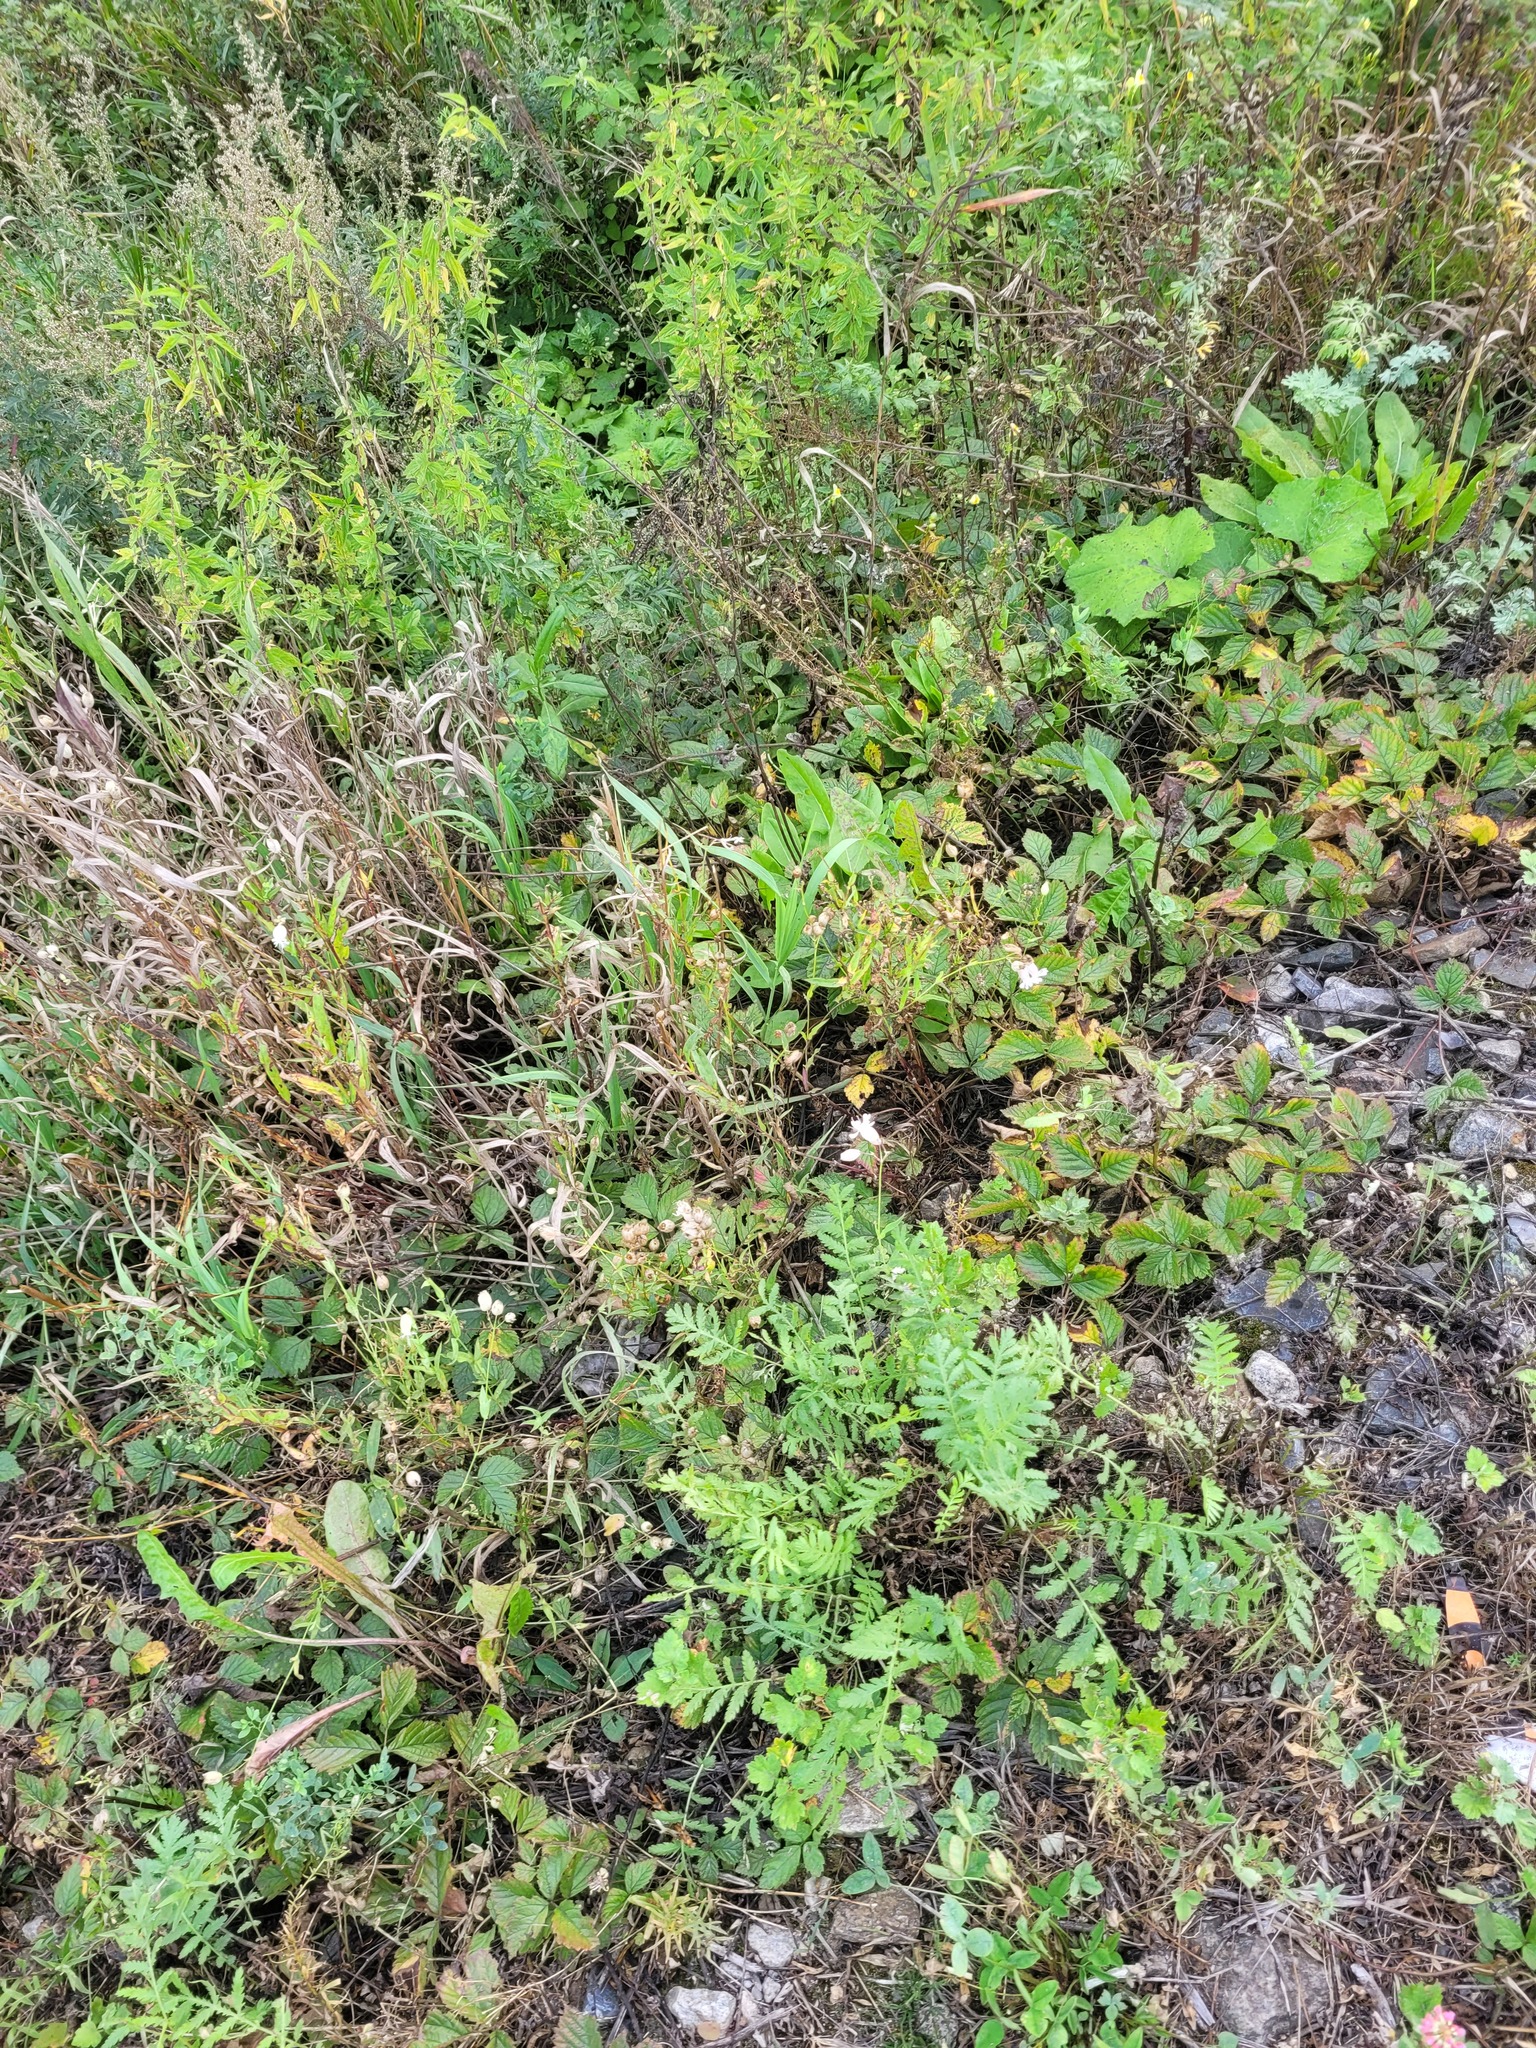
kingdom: Plantae
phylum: Tracheophyta
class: Magnoliopsida
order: Caryophyllales
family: Caryophyllaceae
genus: Silene
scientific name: Silene vulgaris
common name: Bladder campion
